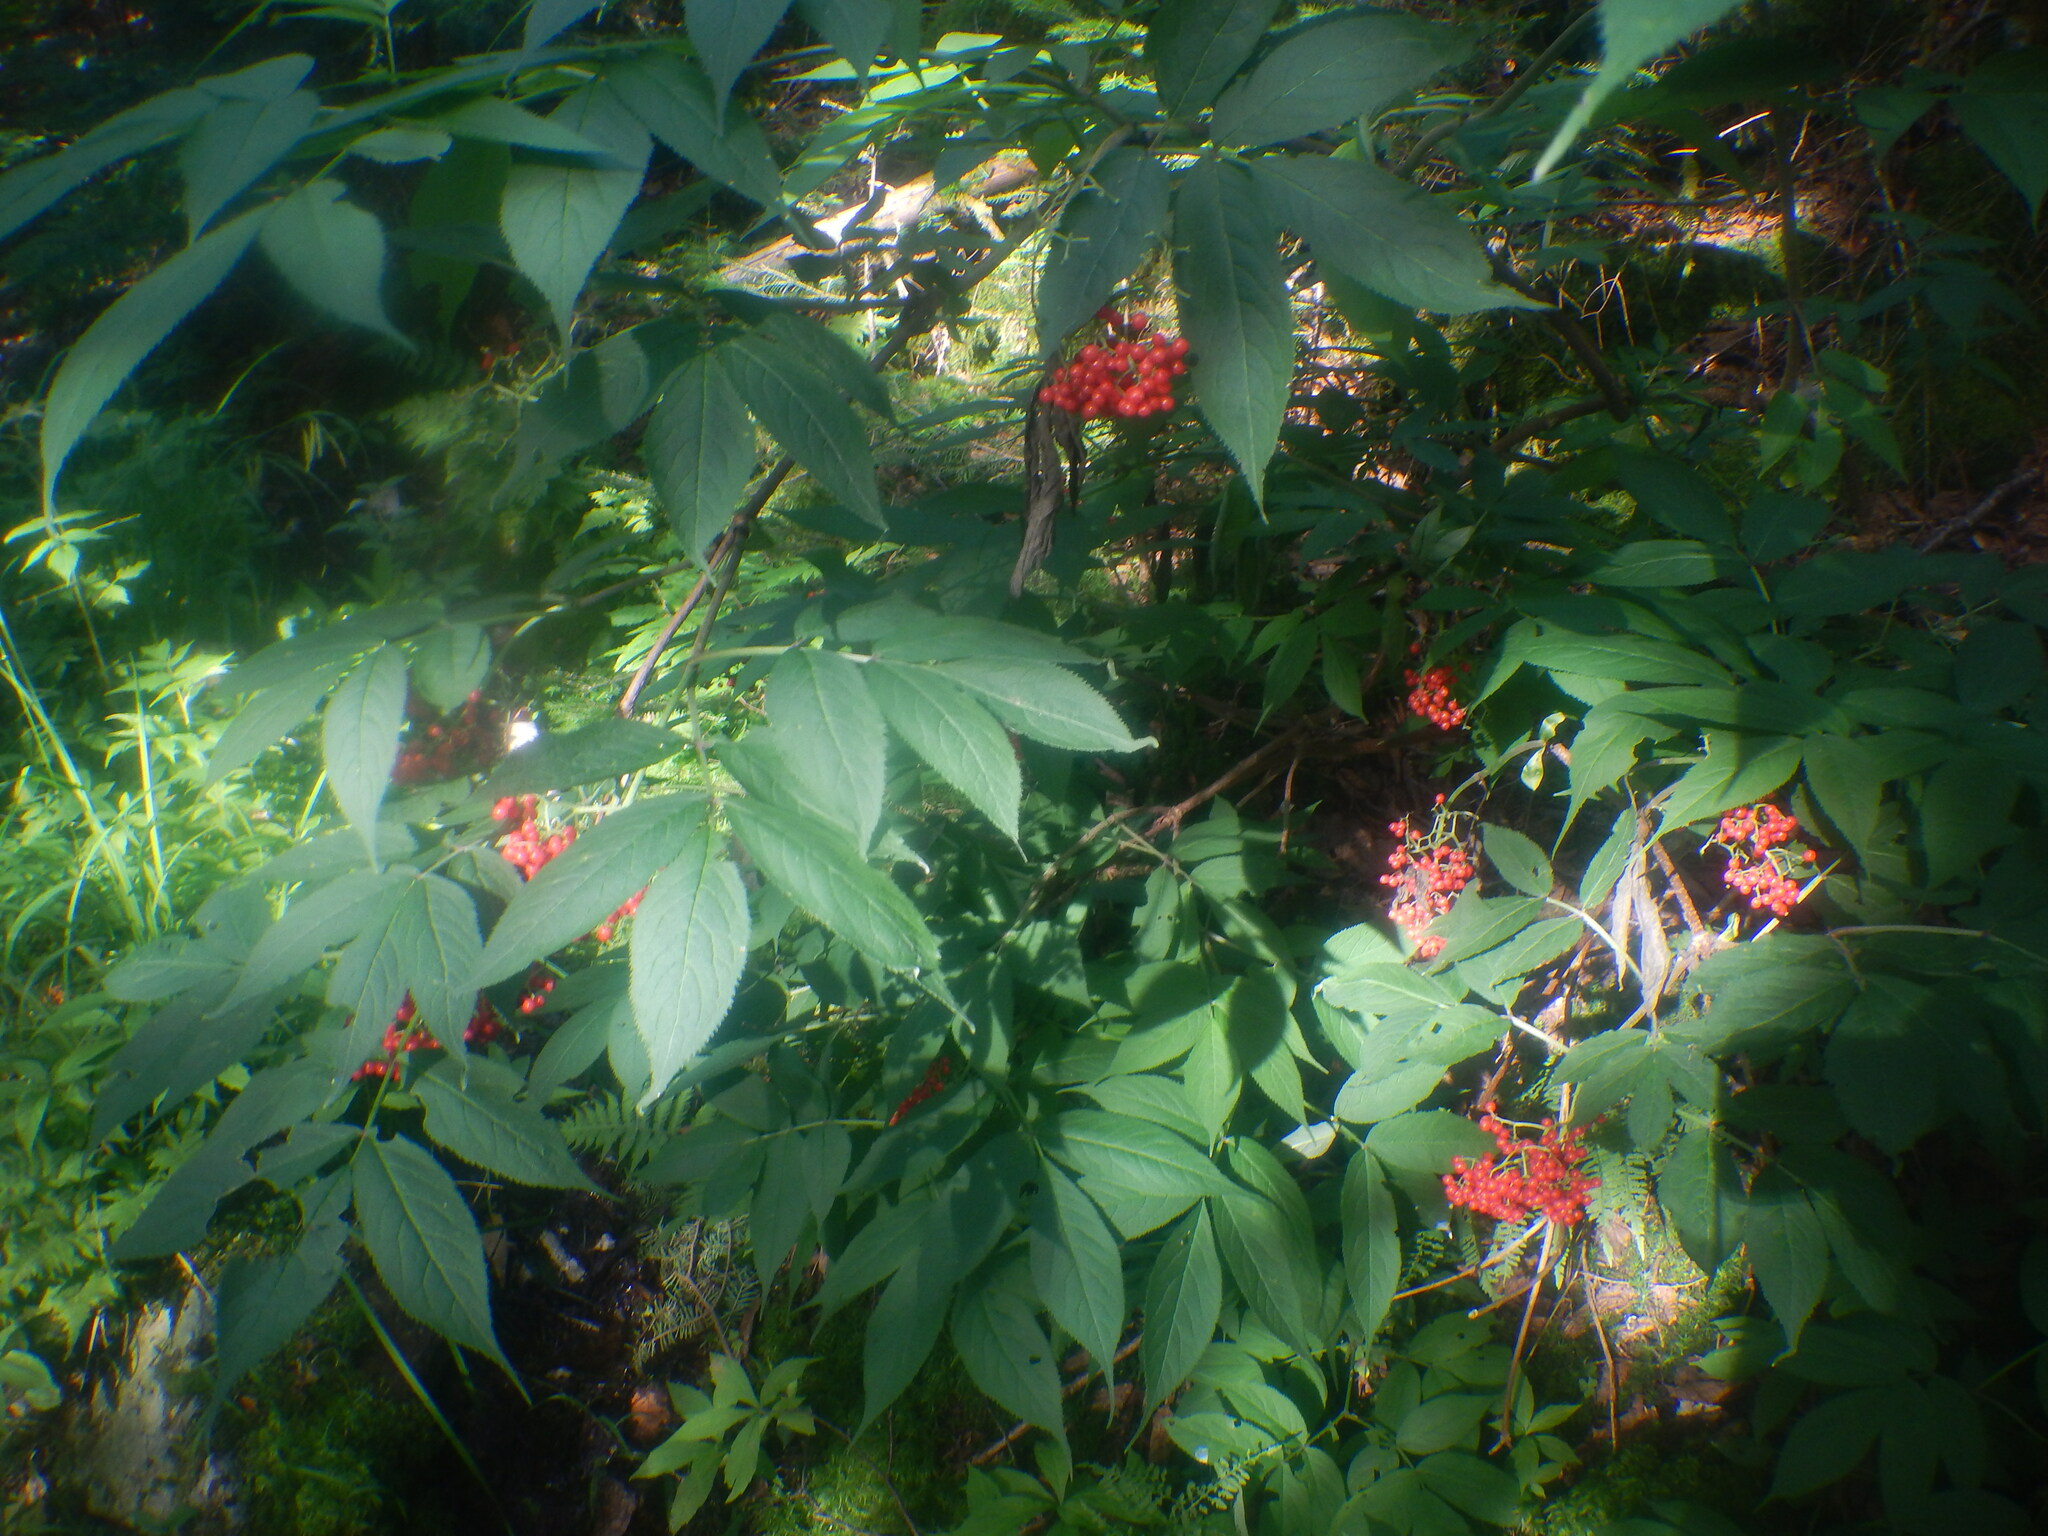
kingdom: Plantae
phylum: Tracheophyta
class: Magnoliopsida
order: Dipsacales
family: Viburnaceae
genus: Sambucus
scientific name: Sambucus racemosa
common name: Red-berried elder
